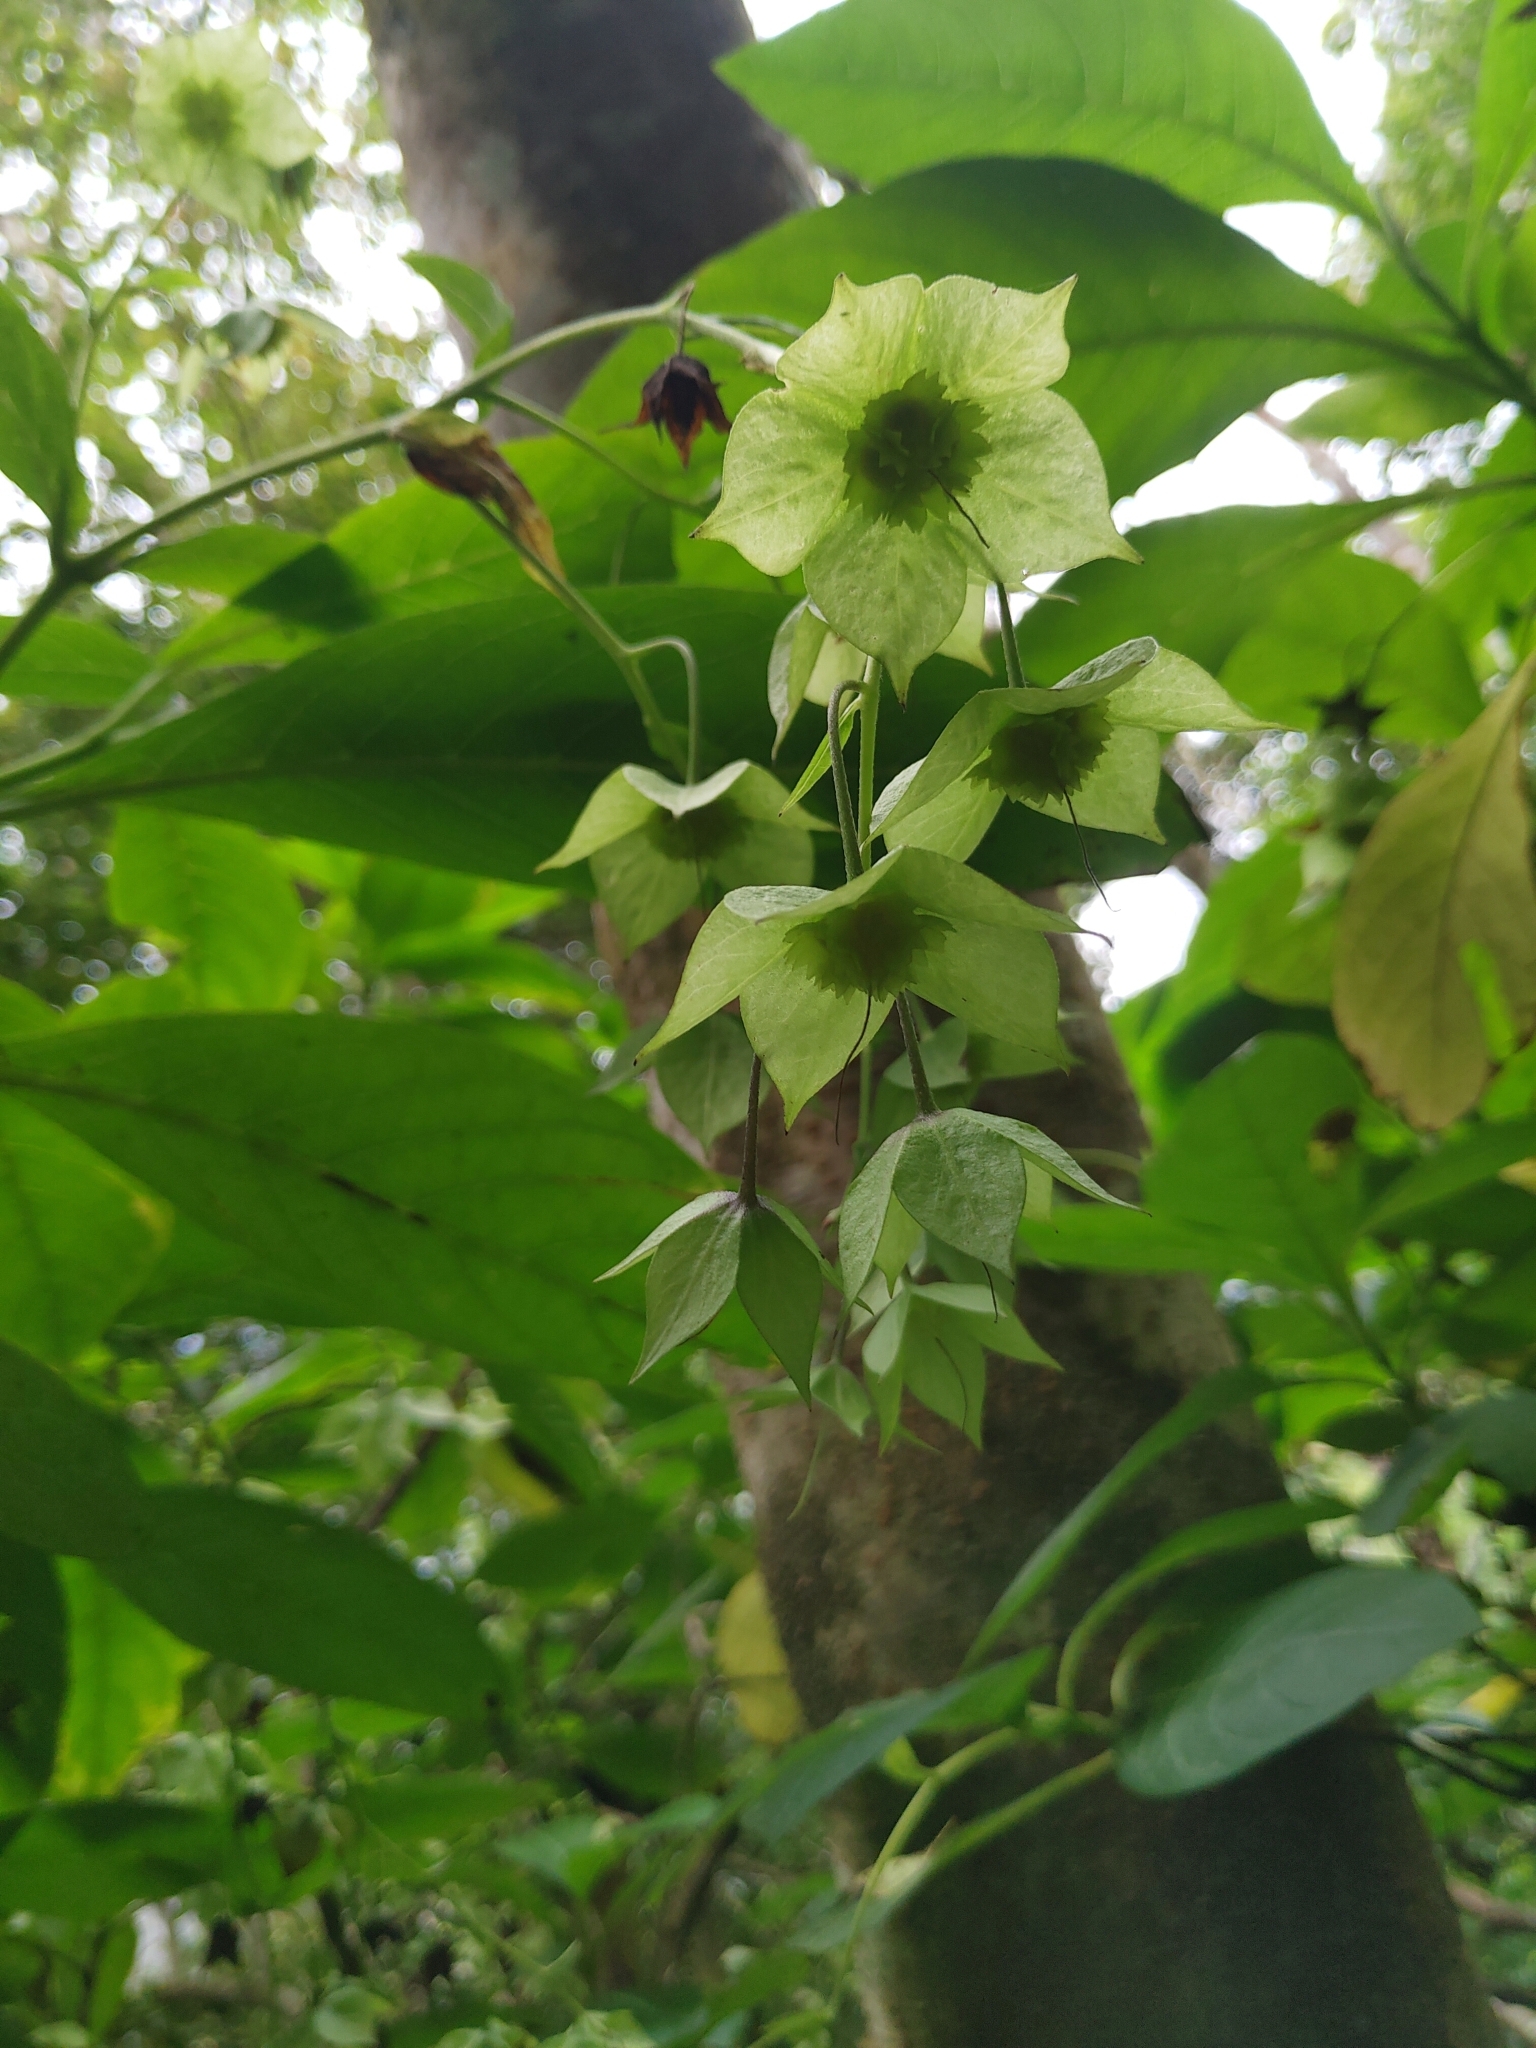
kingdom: Plantae
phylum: Tracheophyta
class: Magnoliopsida
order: Boraginales
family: Boraginaceae
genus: Trichodesma
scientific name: Trichodesma calycosum
